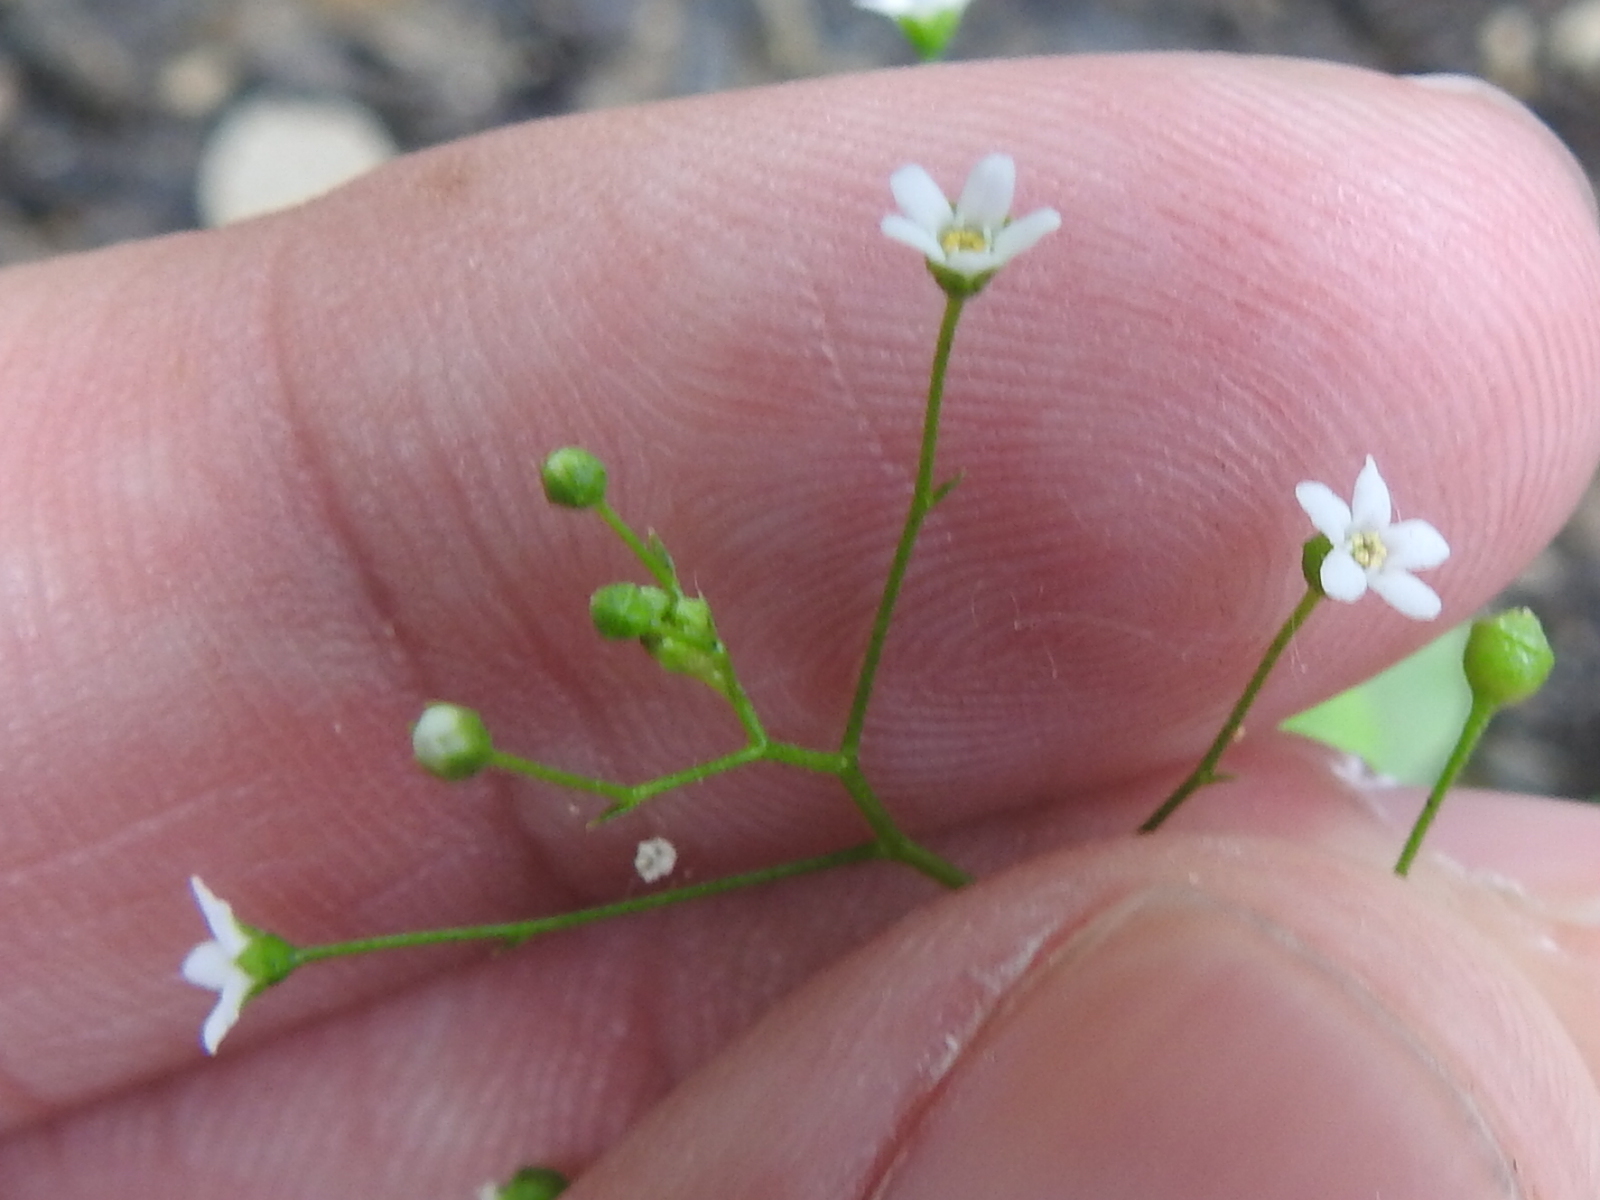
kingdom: Plantae
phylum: Tracheophyta
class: Magnoliopsida
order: Ericales
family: Primulaceae
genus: Samolus
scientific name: Samolus parviflorus
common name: False water pimpernel
